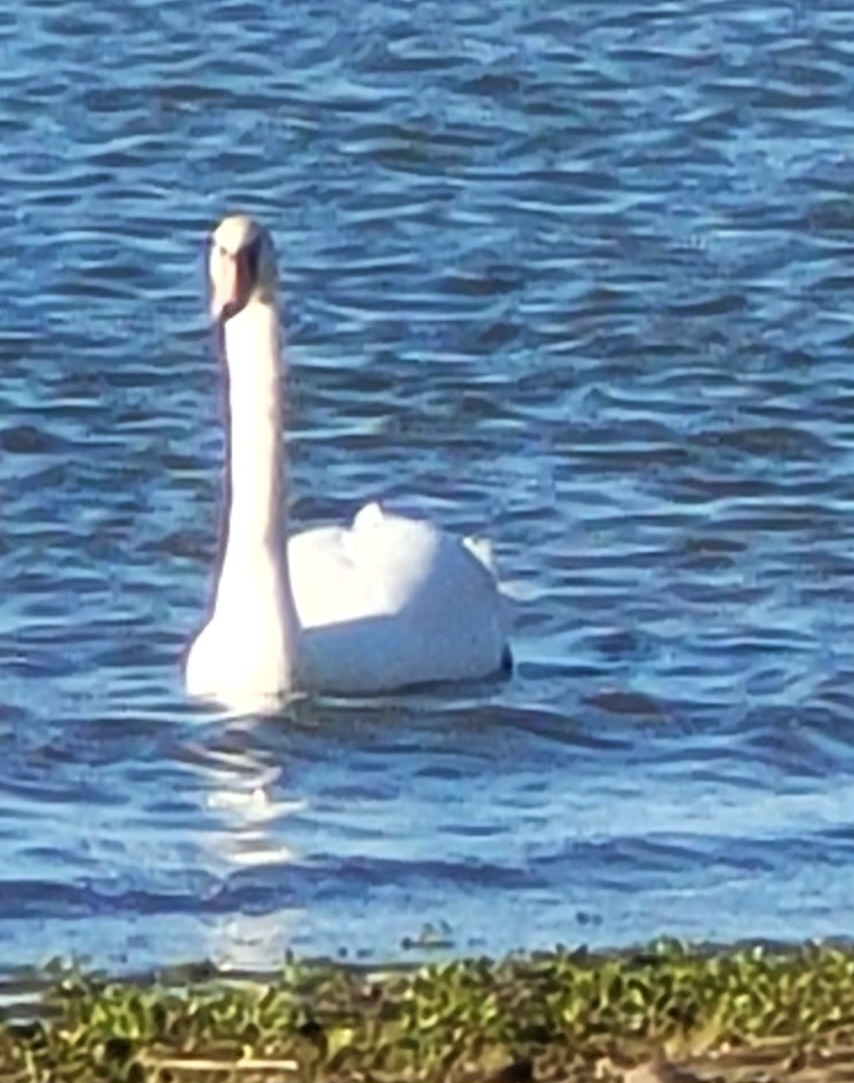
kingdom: Animalia
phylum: Chordata
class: Aves
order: Anseriformes
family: Anatidae
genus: Cygnus
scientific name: Cygnus olor
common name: Mute swan
